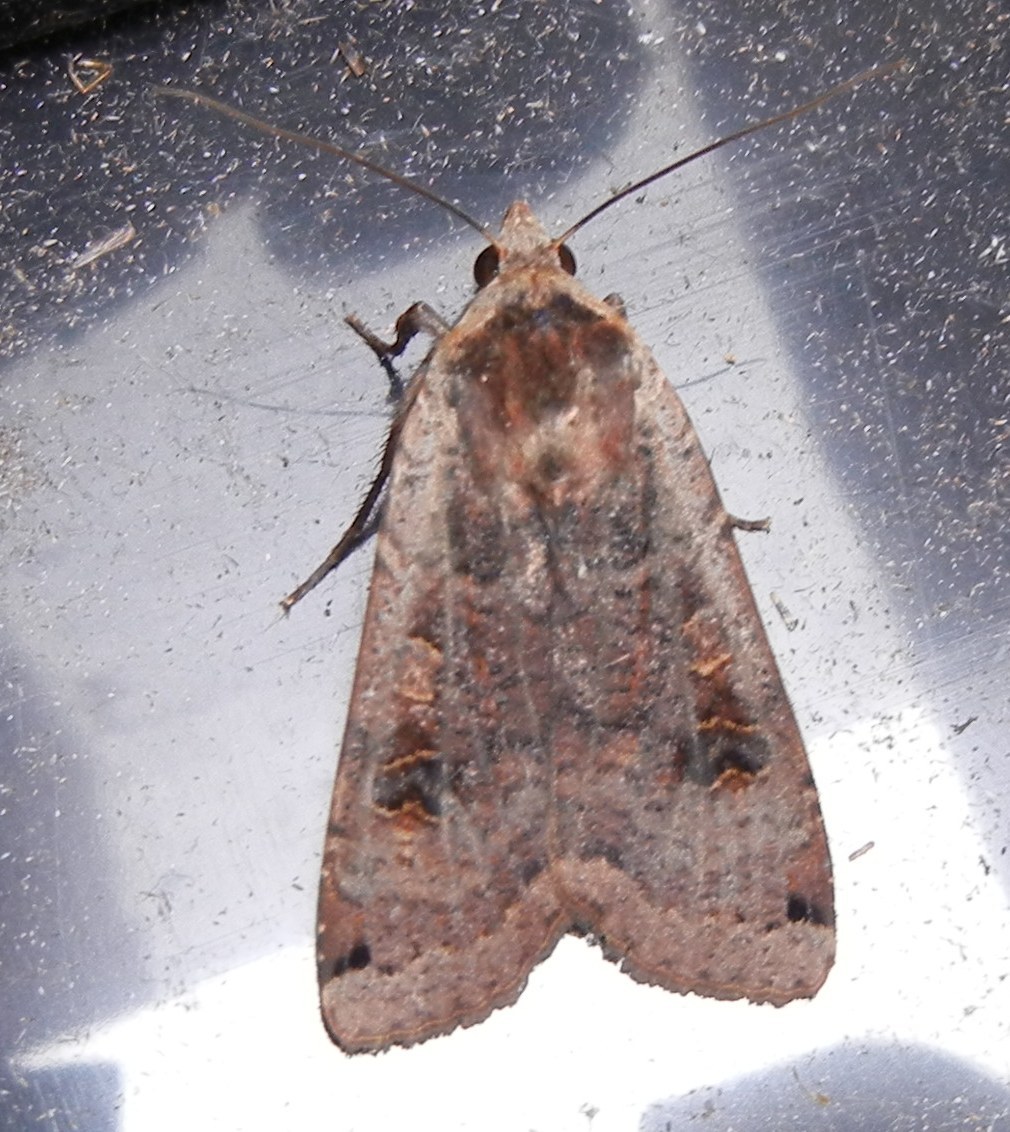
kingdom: Animalia
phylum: Arthropoda
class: Insecta
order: Lepidoptera
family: Noctuidae
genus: Noctua
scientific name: Noctua pronuba
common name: Large yellow underwing
